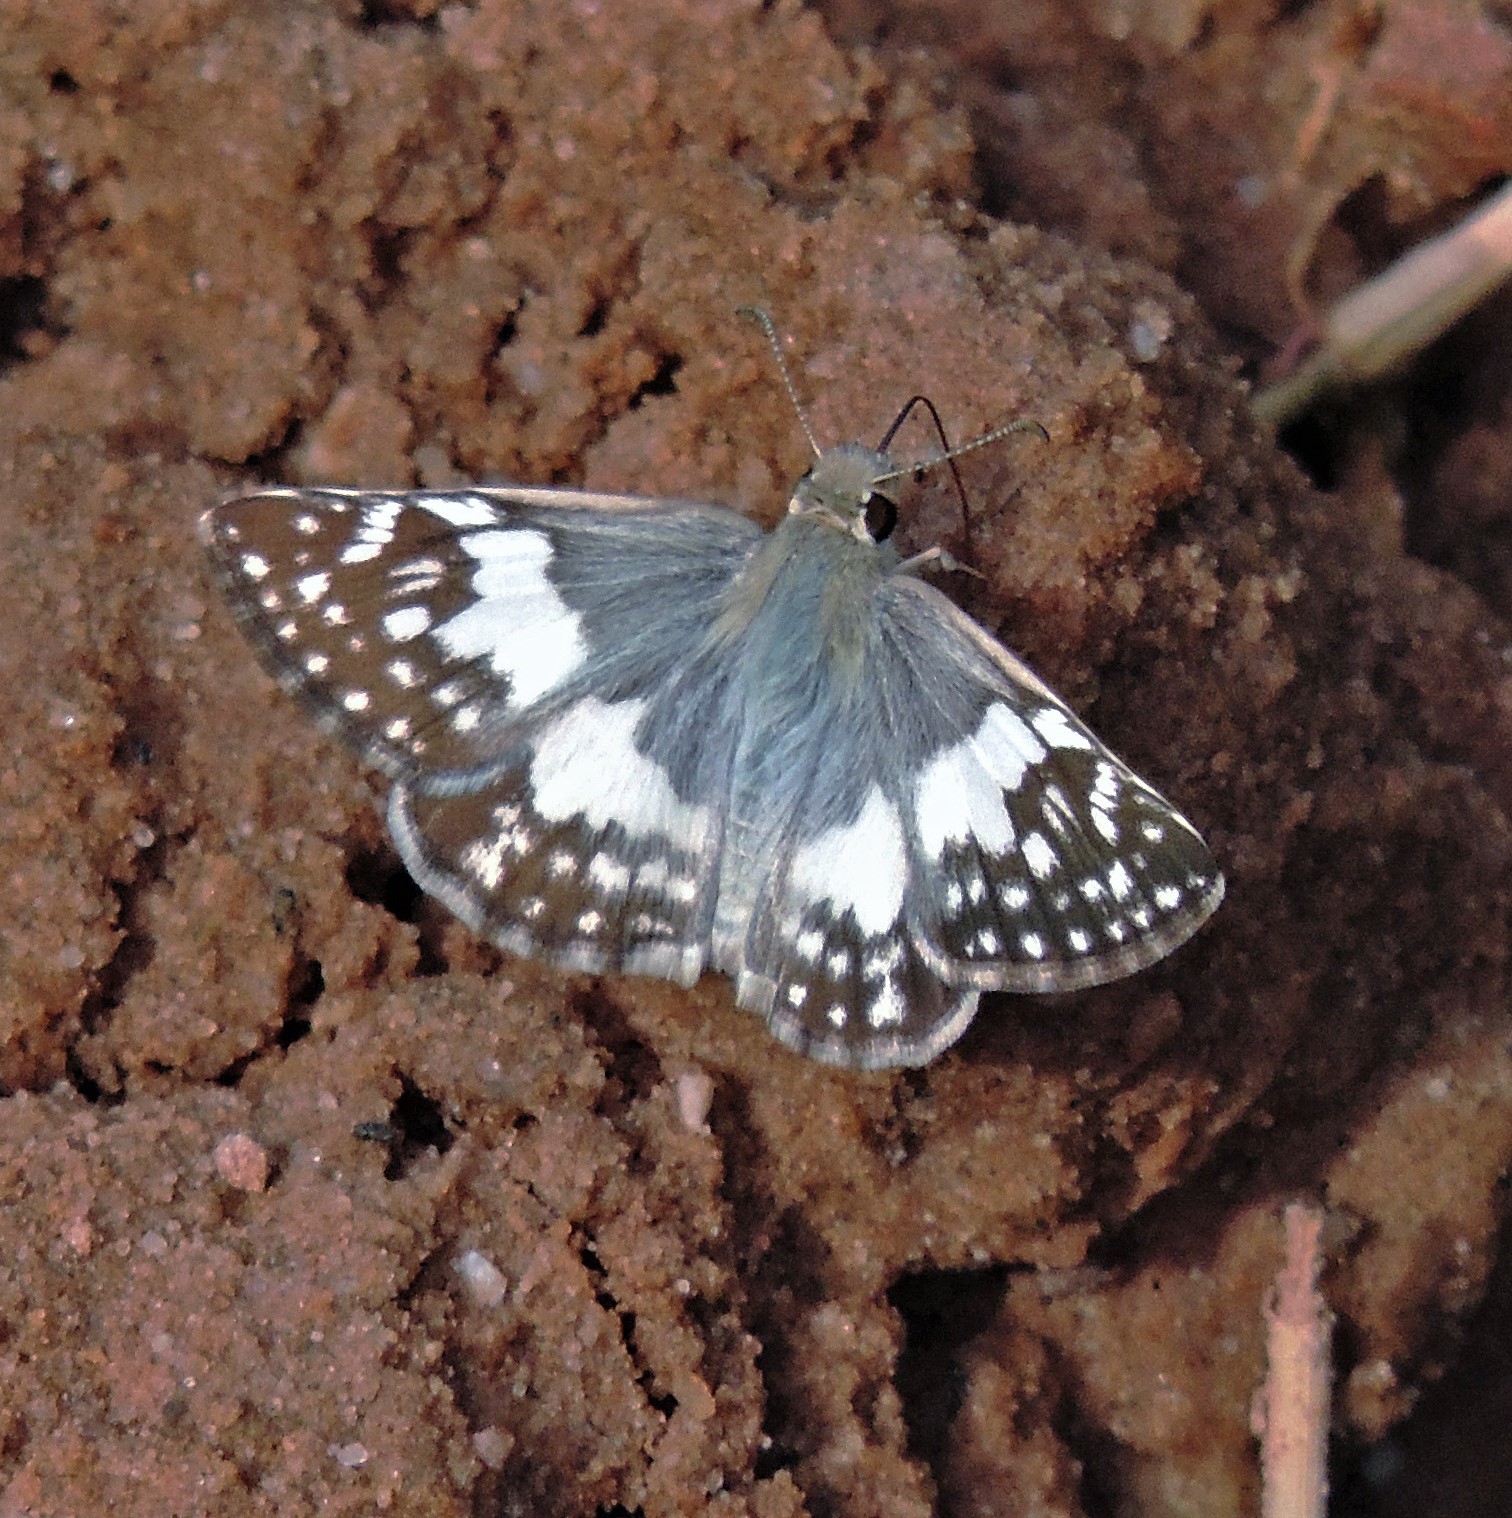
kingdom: Animalia
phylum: Arthropoda
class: Insecta
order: Lepidoptera
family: Hesperiidae
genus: Heliopyrgus
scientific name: Heliopyrgus domicella
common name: Erichson's white skipper
